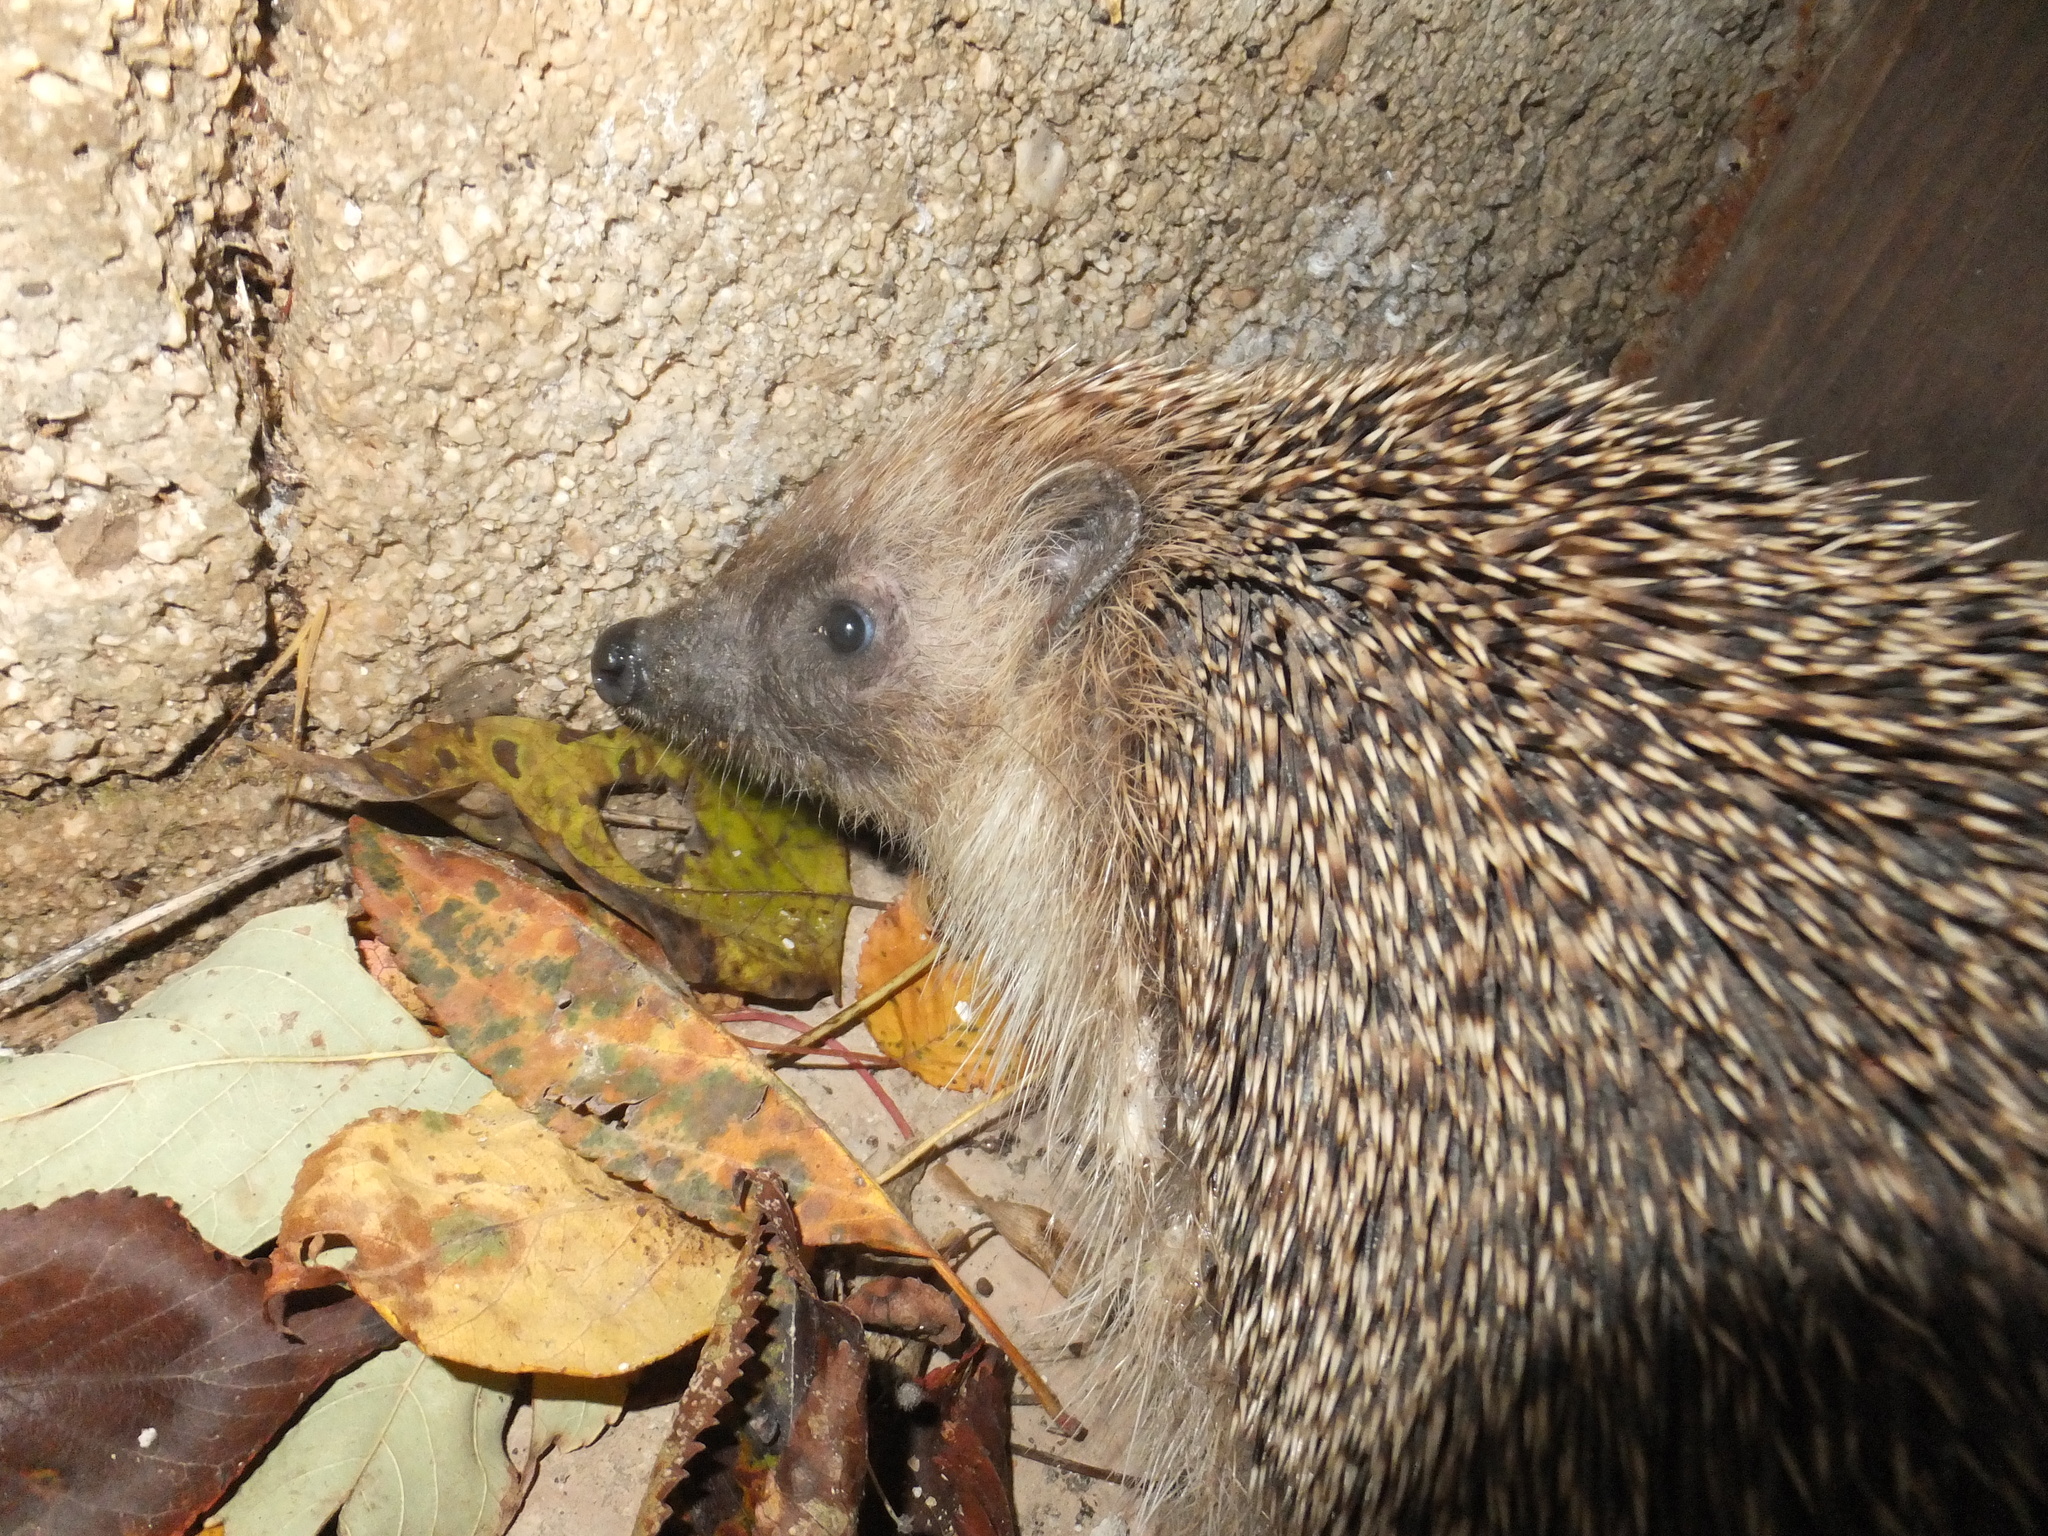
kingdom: Animalia
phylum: Chordata
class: Mammalia
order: Erinaceomorpha
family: Erinaceidae
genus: Erinaceus
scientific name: Erinaceus europaeus
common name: West european hedgehog
